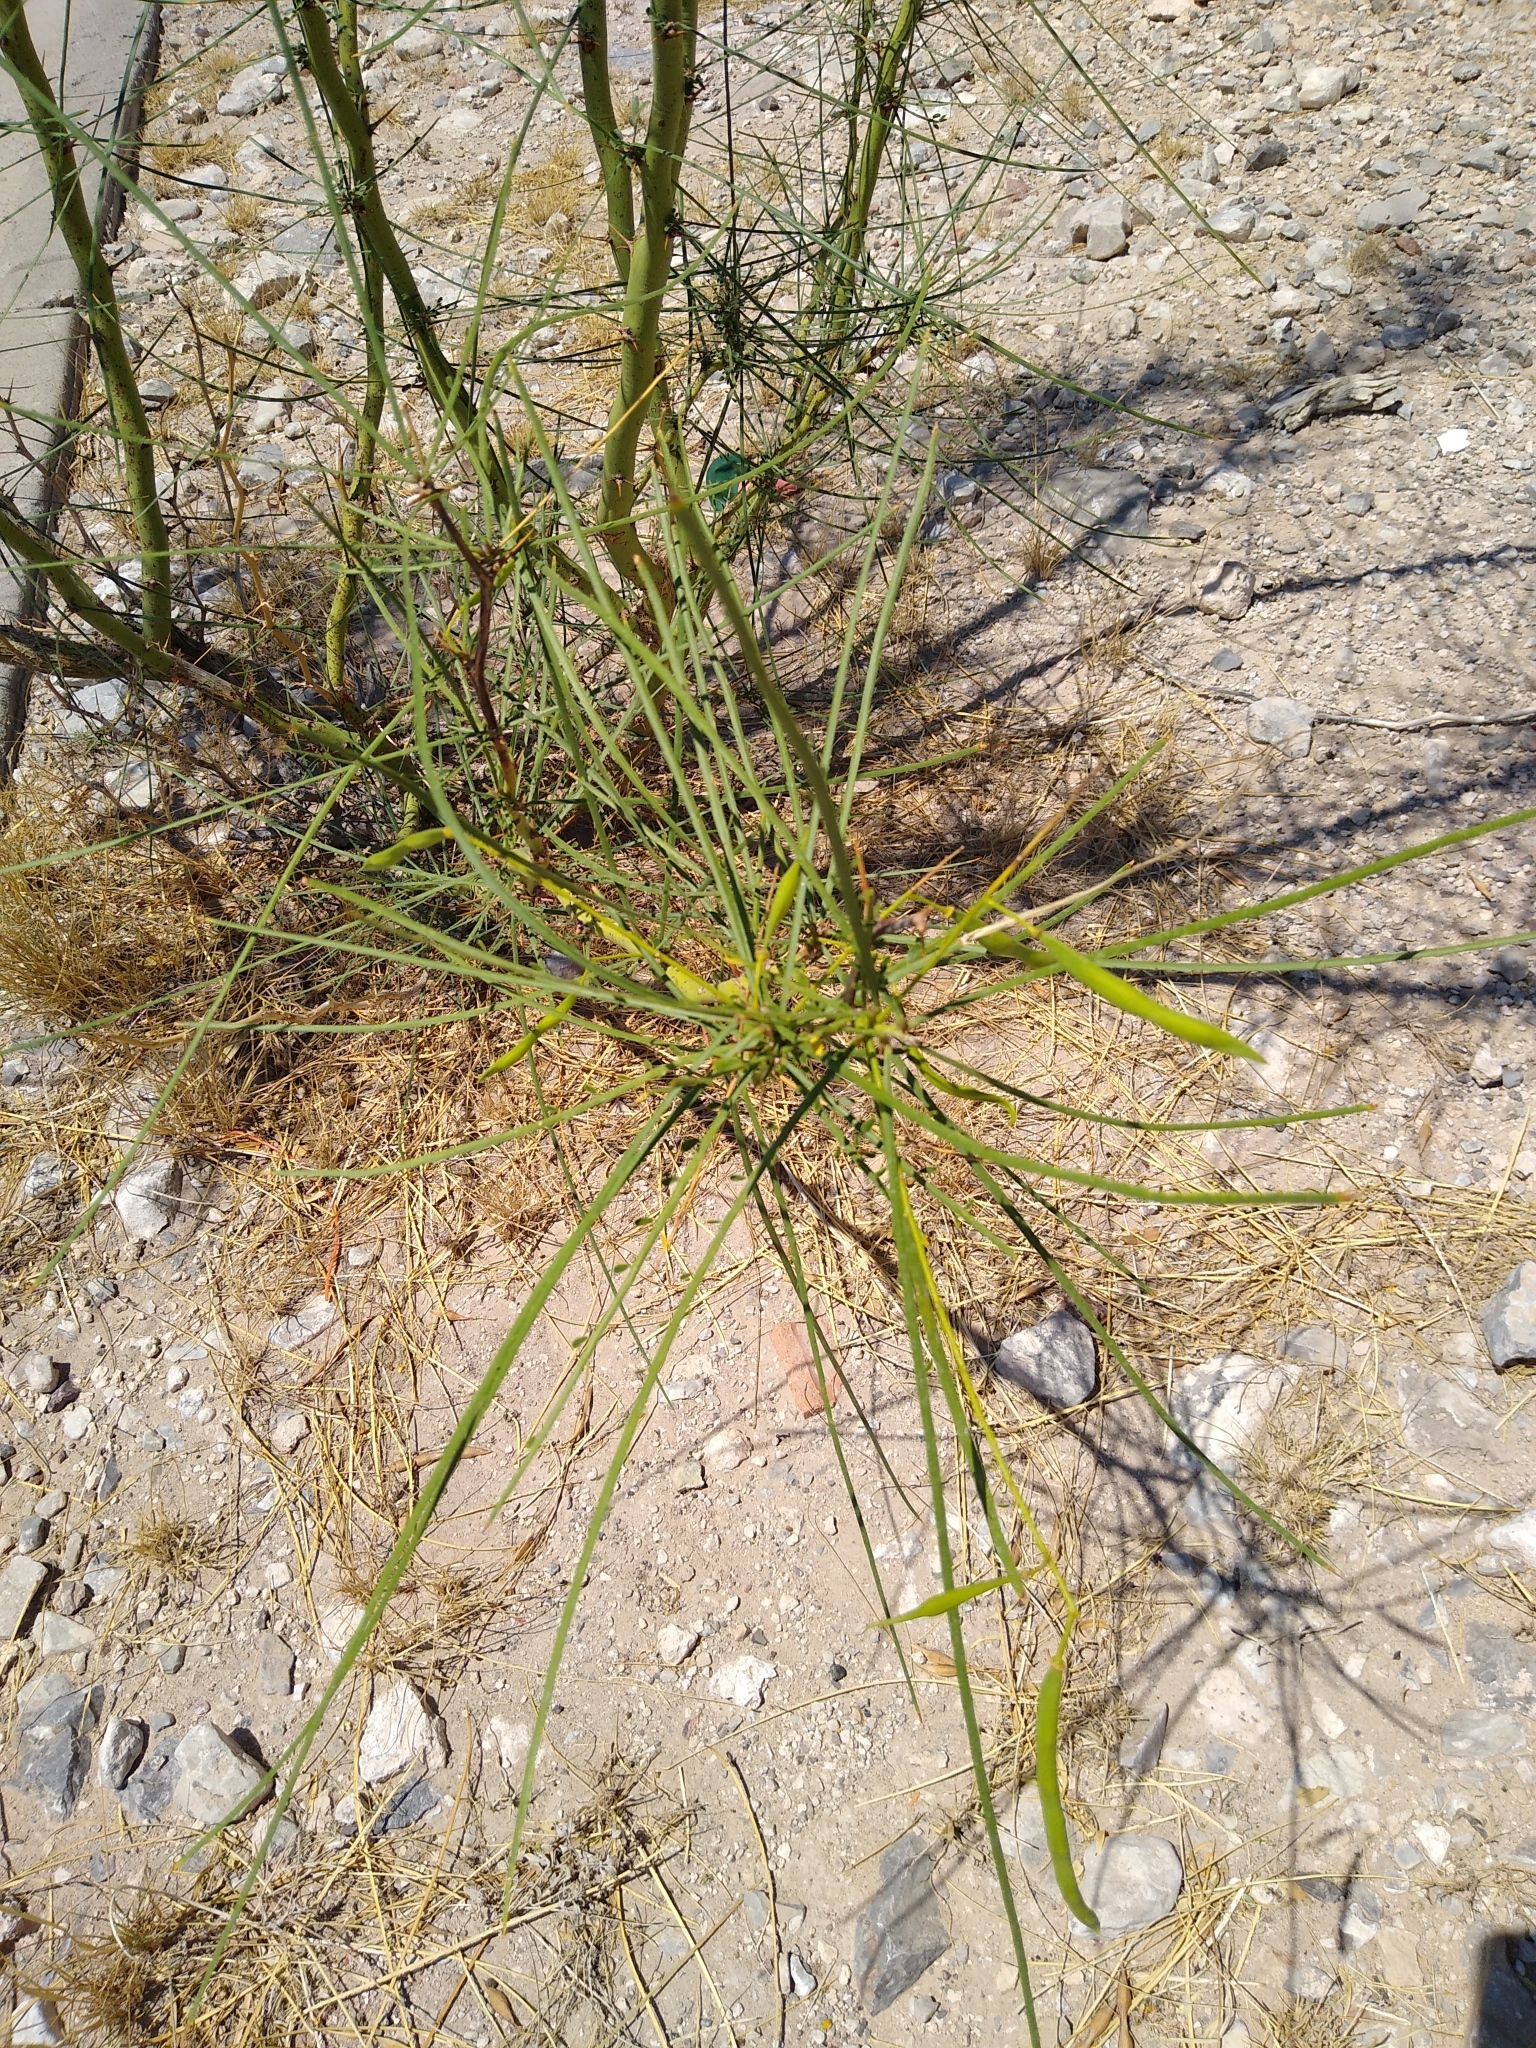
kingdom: Plantae
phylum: Tracheophyta
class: Magnoliopsida
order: Fabales
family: Fabaceae
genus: Parkinsonia
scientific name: Parkinsonia aculeata
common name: Jerusalem thorn
